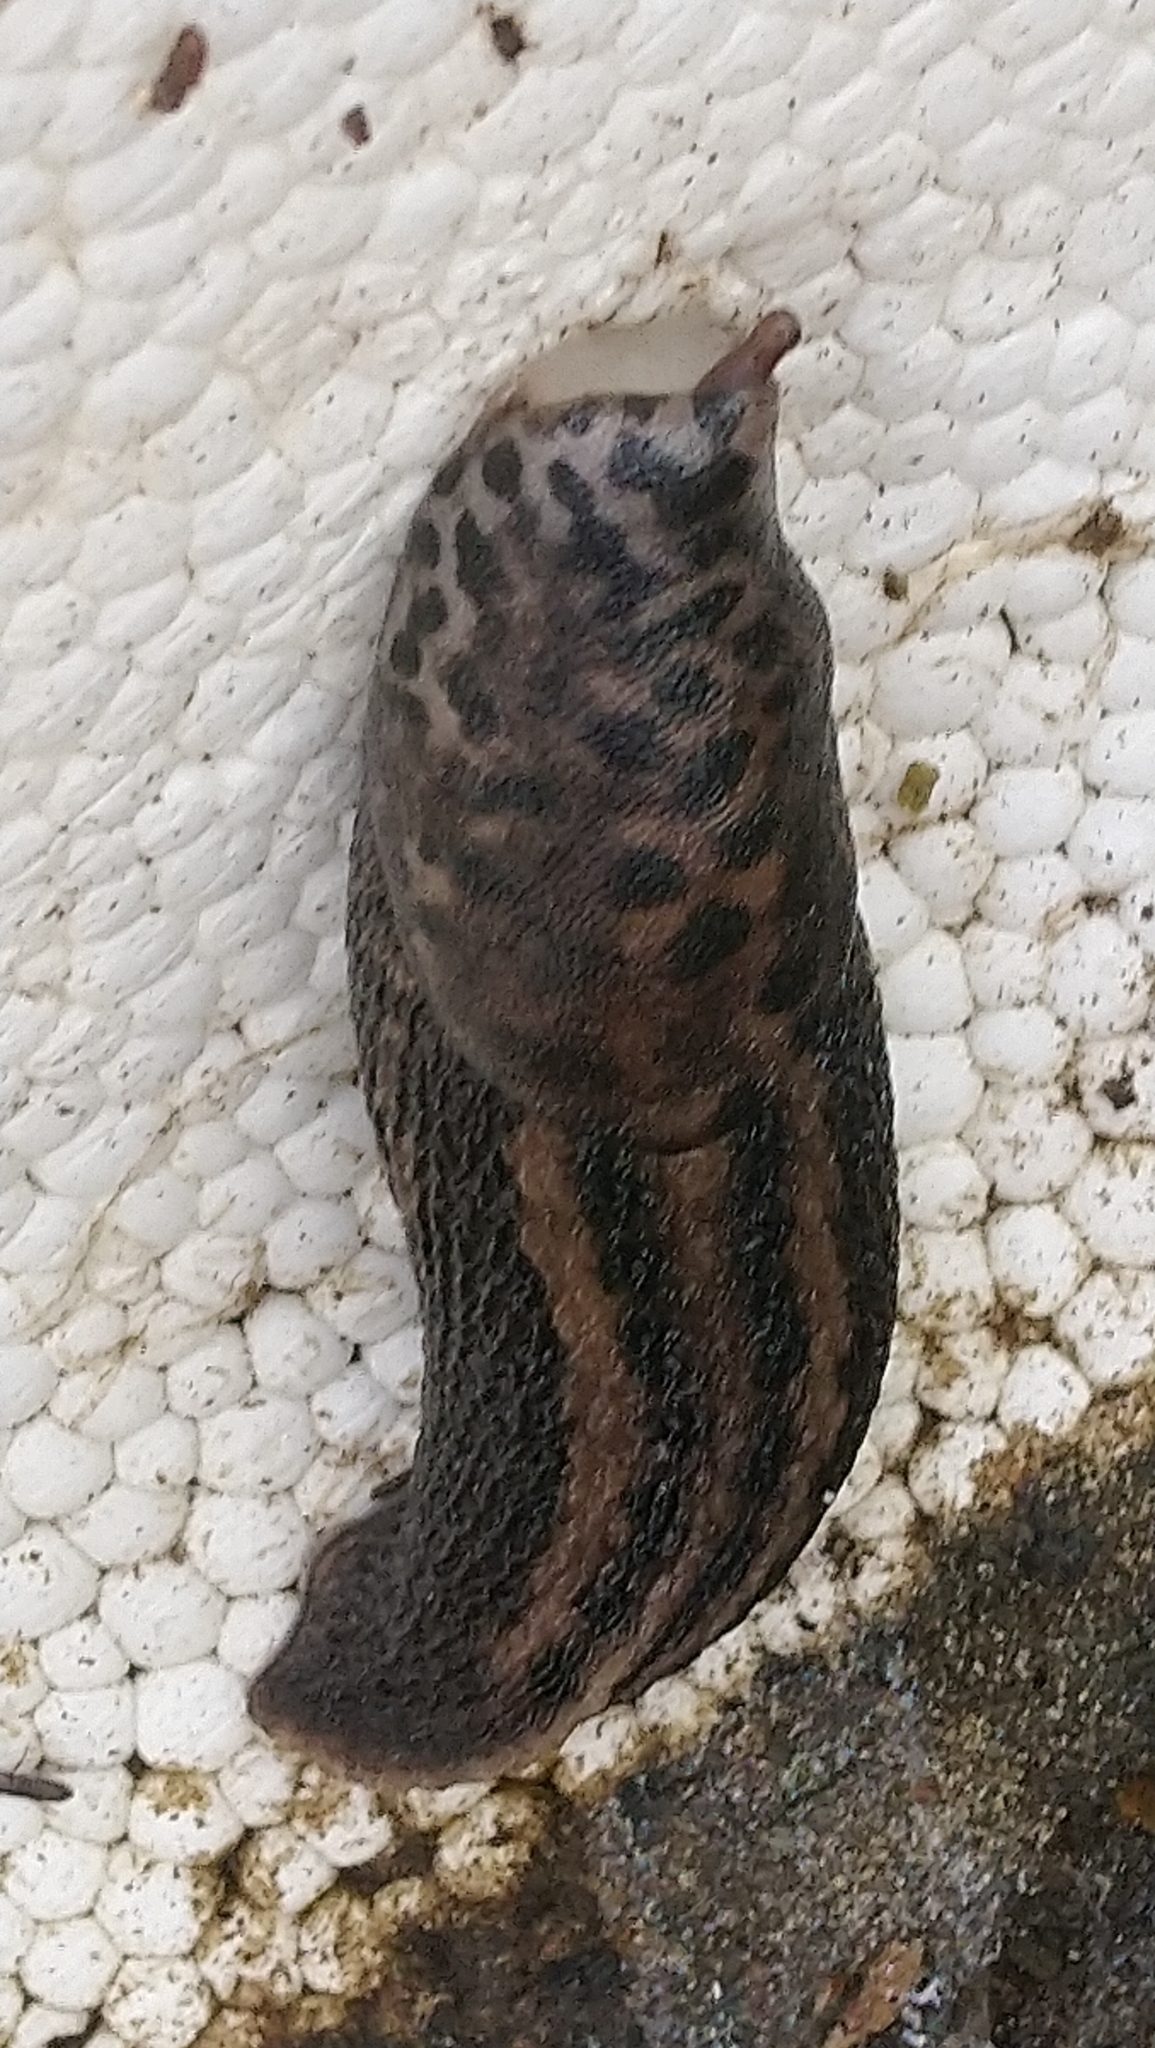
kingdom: Animalia
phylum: Mollusca
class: Gastropoda
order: Stylommatophora
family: Limacidae
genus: Limax
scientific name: Limax maximus
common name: Great grey slug
